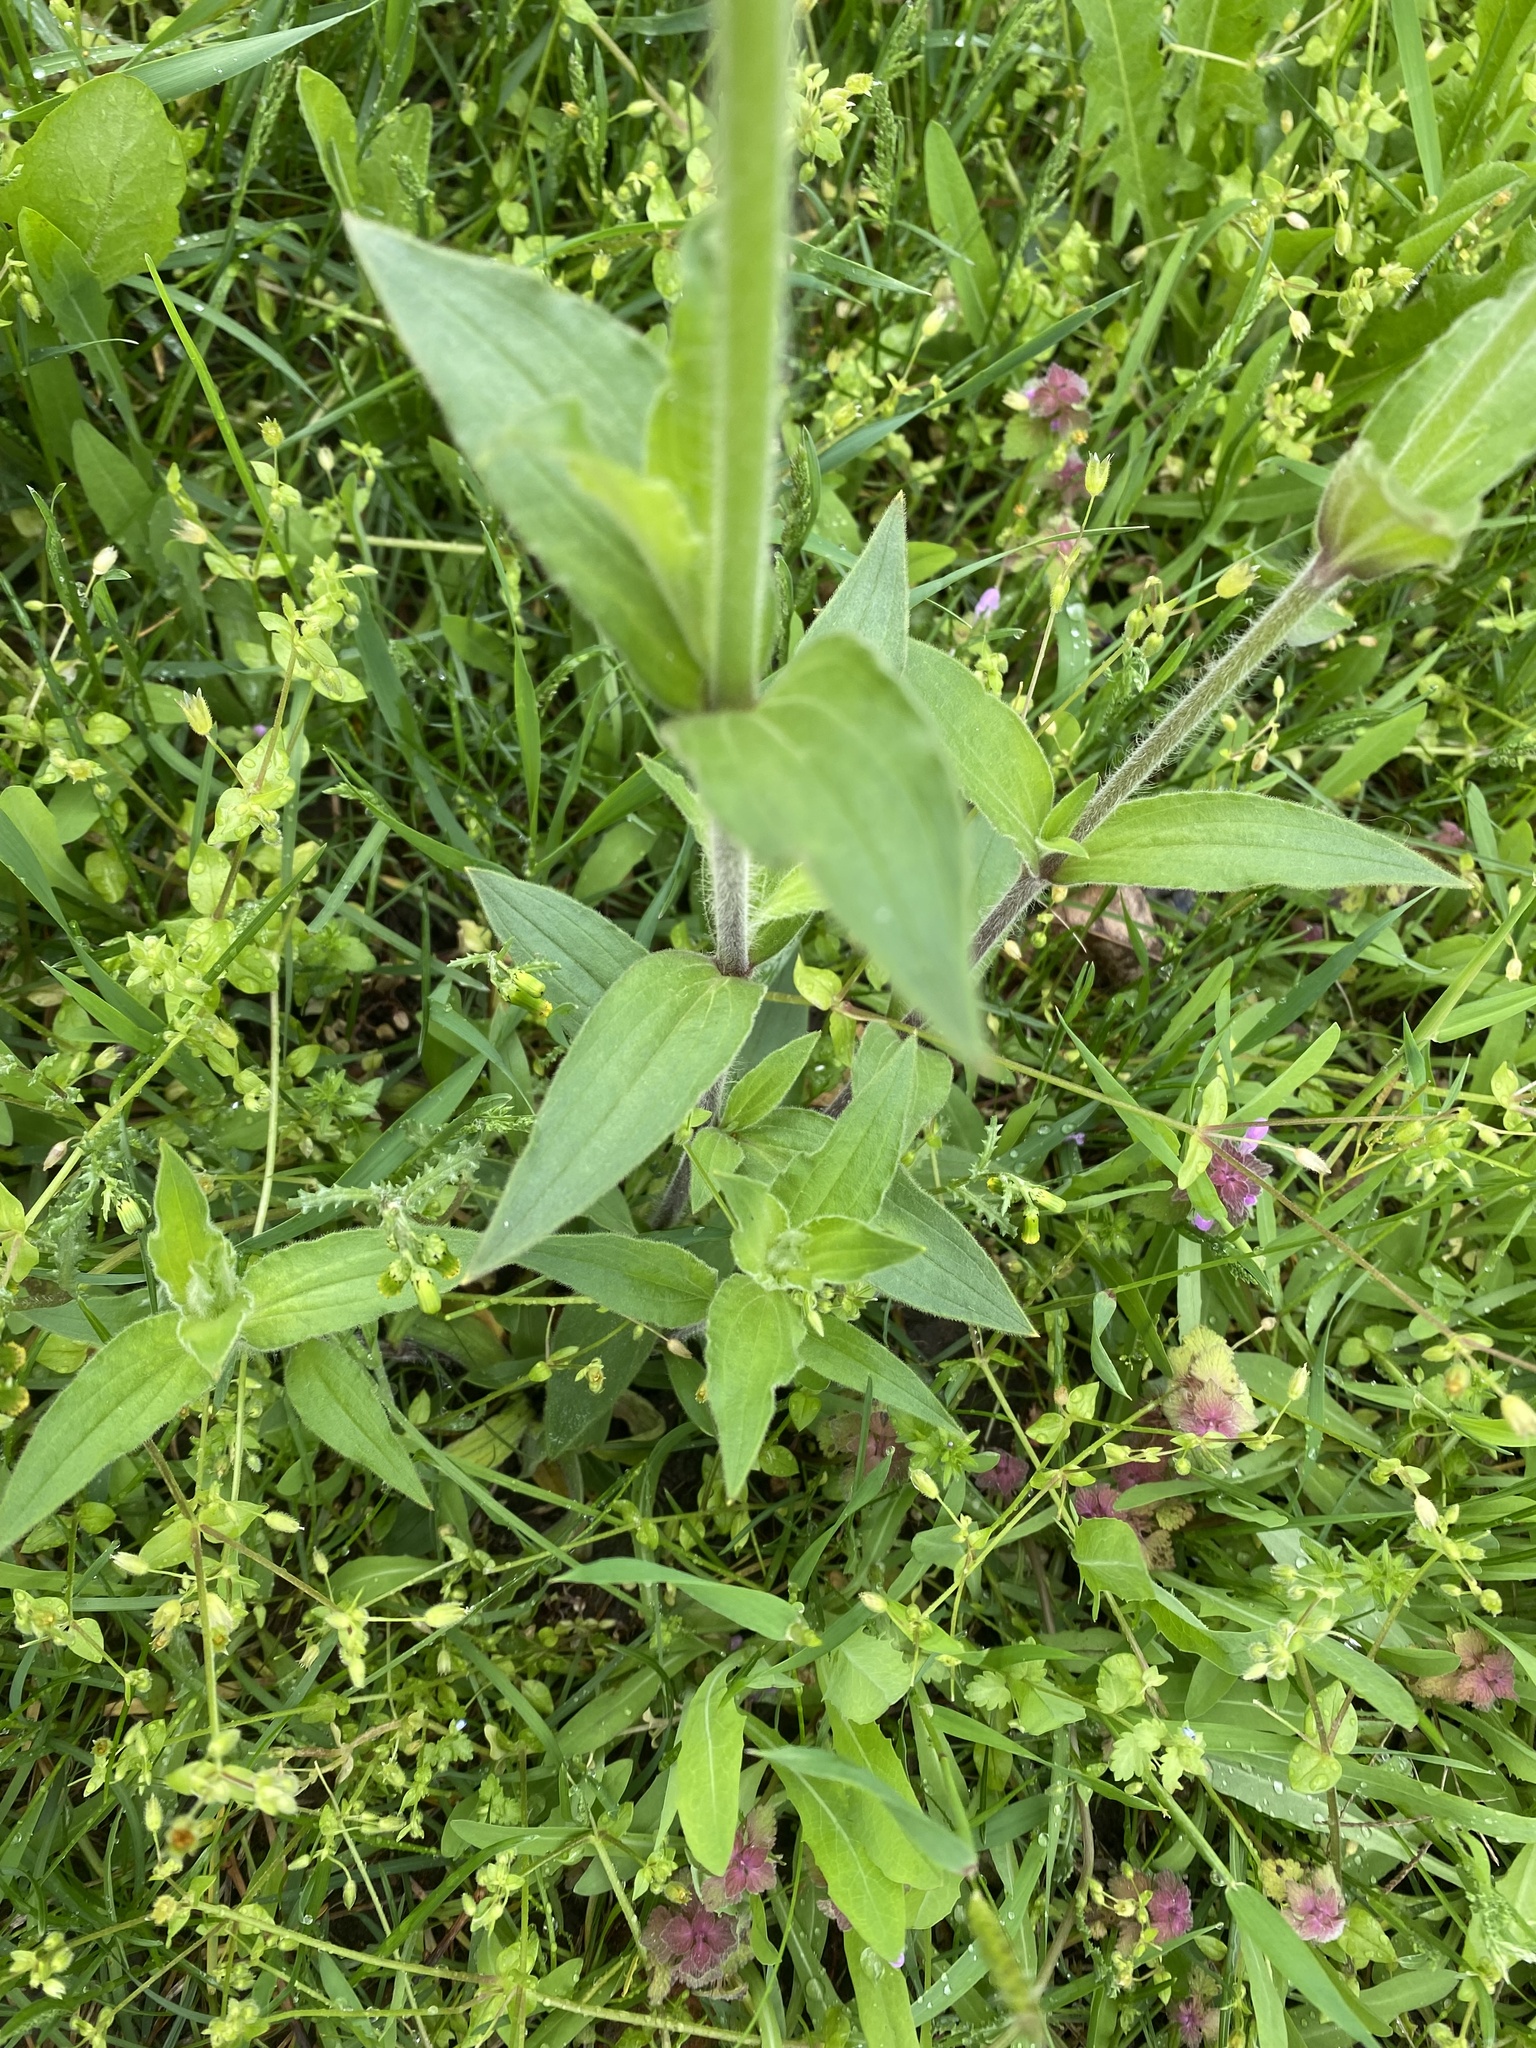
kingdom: Plantae
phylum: Tracheophyta
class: Magnoliopsida
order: Caryophyllales
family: Caryophyllaceae
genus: Silene
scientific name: Silene latifolia
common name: White campion
